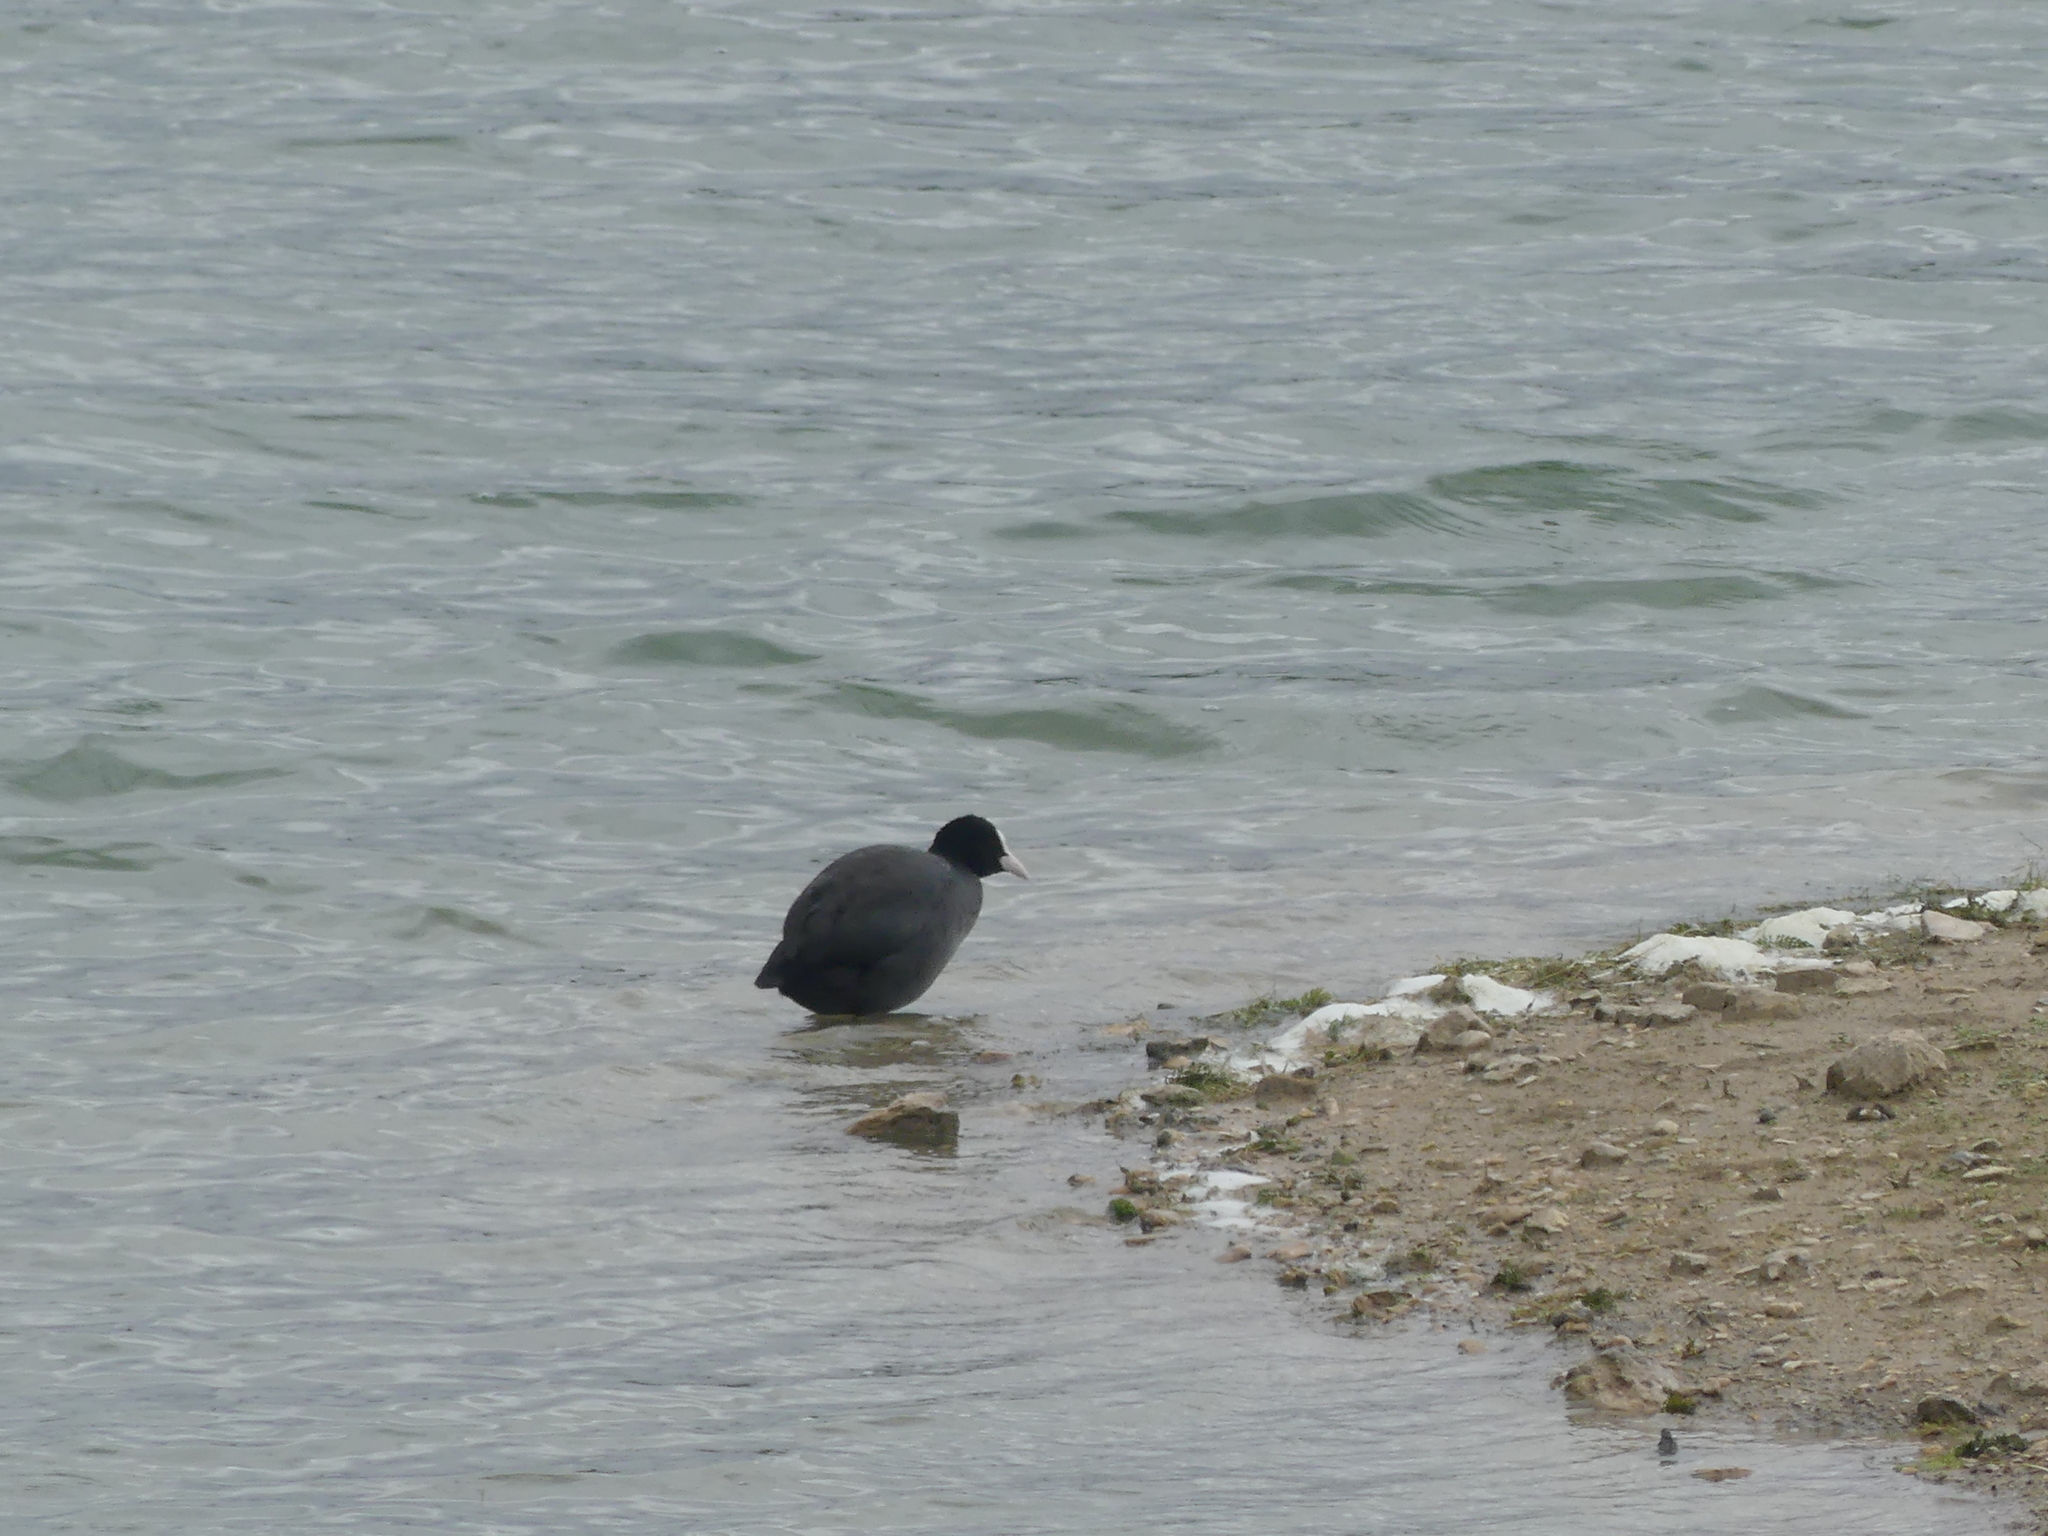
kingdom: Animalia
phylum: Chordata
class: Aves
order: Gruiformes
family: Rallidae
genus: Fulica
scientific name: Fulica atra
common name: Eurasian coot
